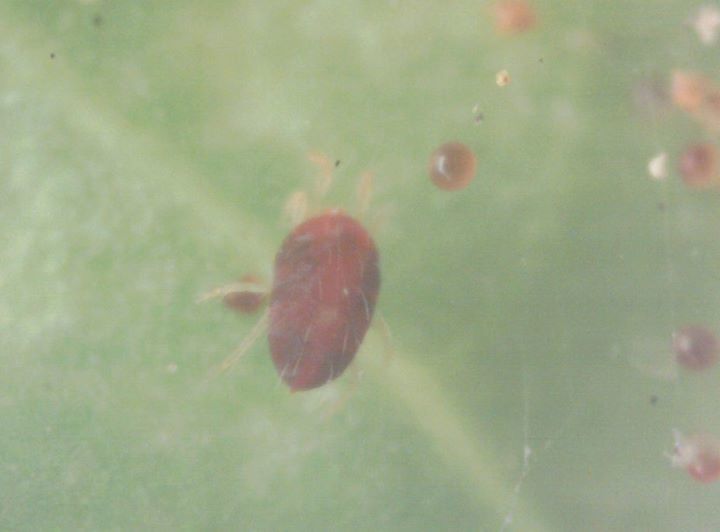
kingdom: Animalia
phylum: Arthropoda
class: Arachnida
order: Trombidiformes
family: Tetranychidae
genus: Tetranychus
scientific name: Tetranychus urticae
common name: Carmine spider mite
